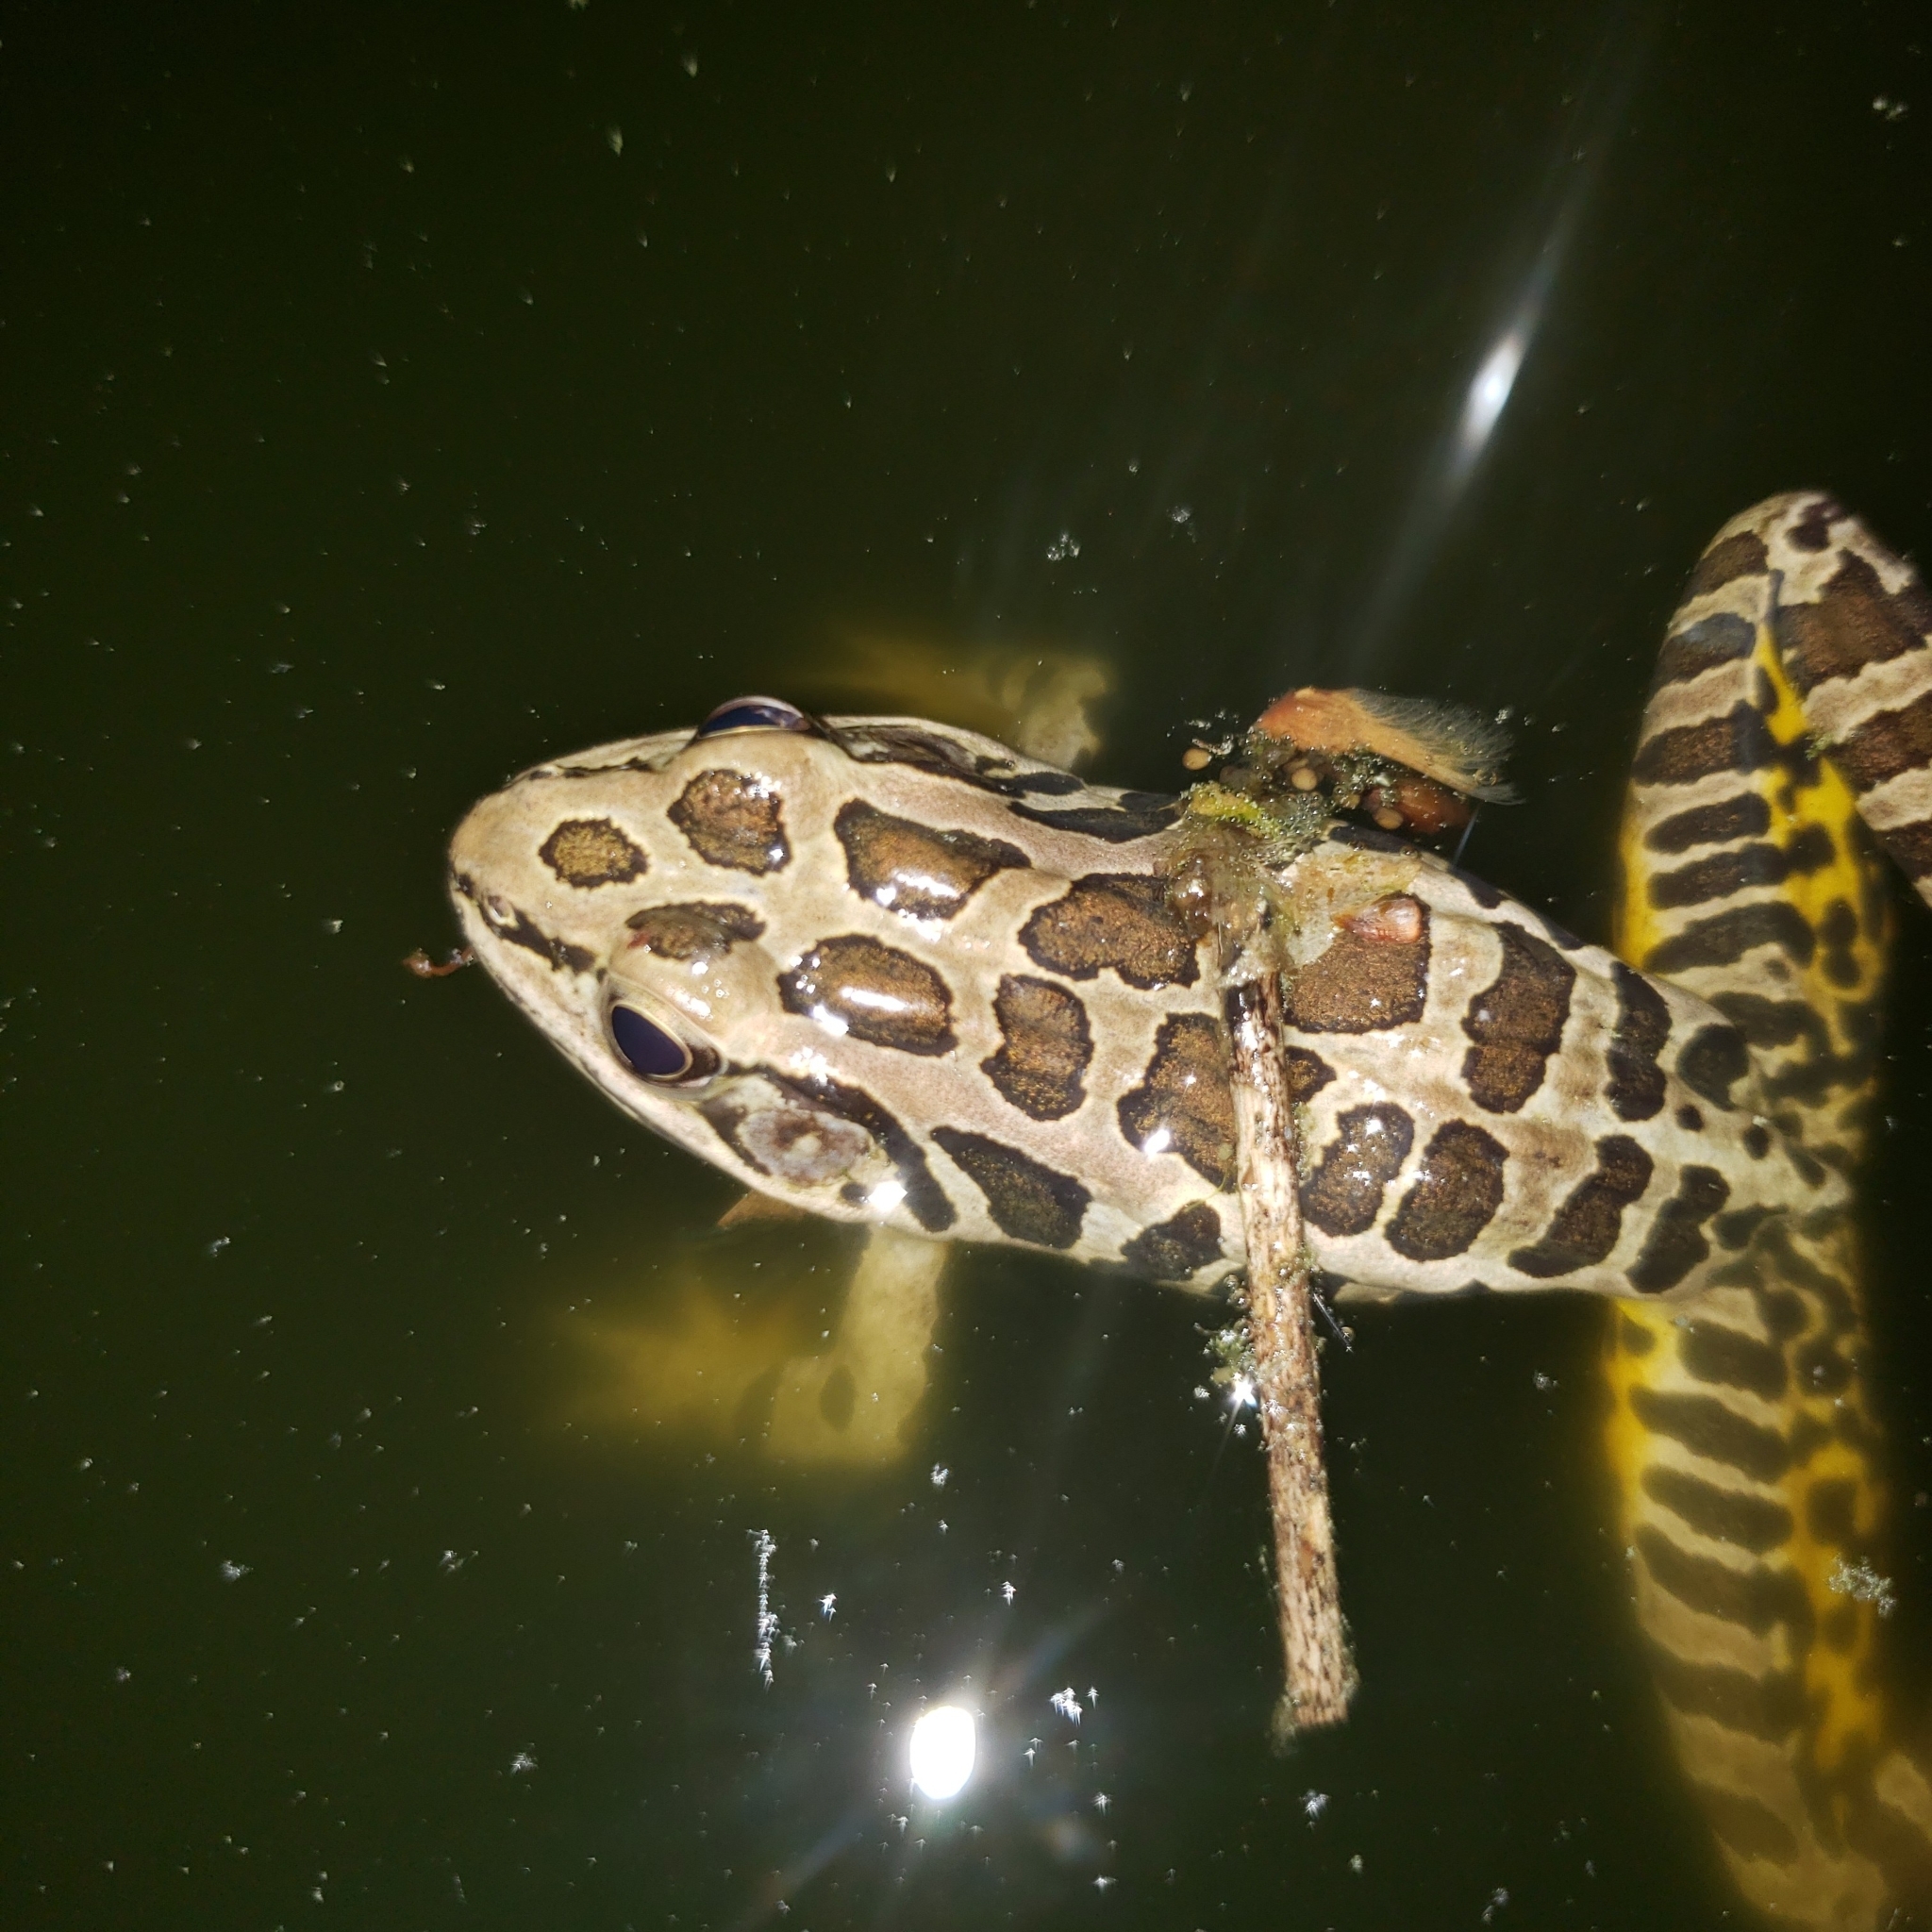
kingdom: Animalia
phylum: Chordata
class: Amphibia
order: Anura
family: Ranidae
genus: Lithobates
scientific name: Lithobates palustris
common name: Pickerel frog
